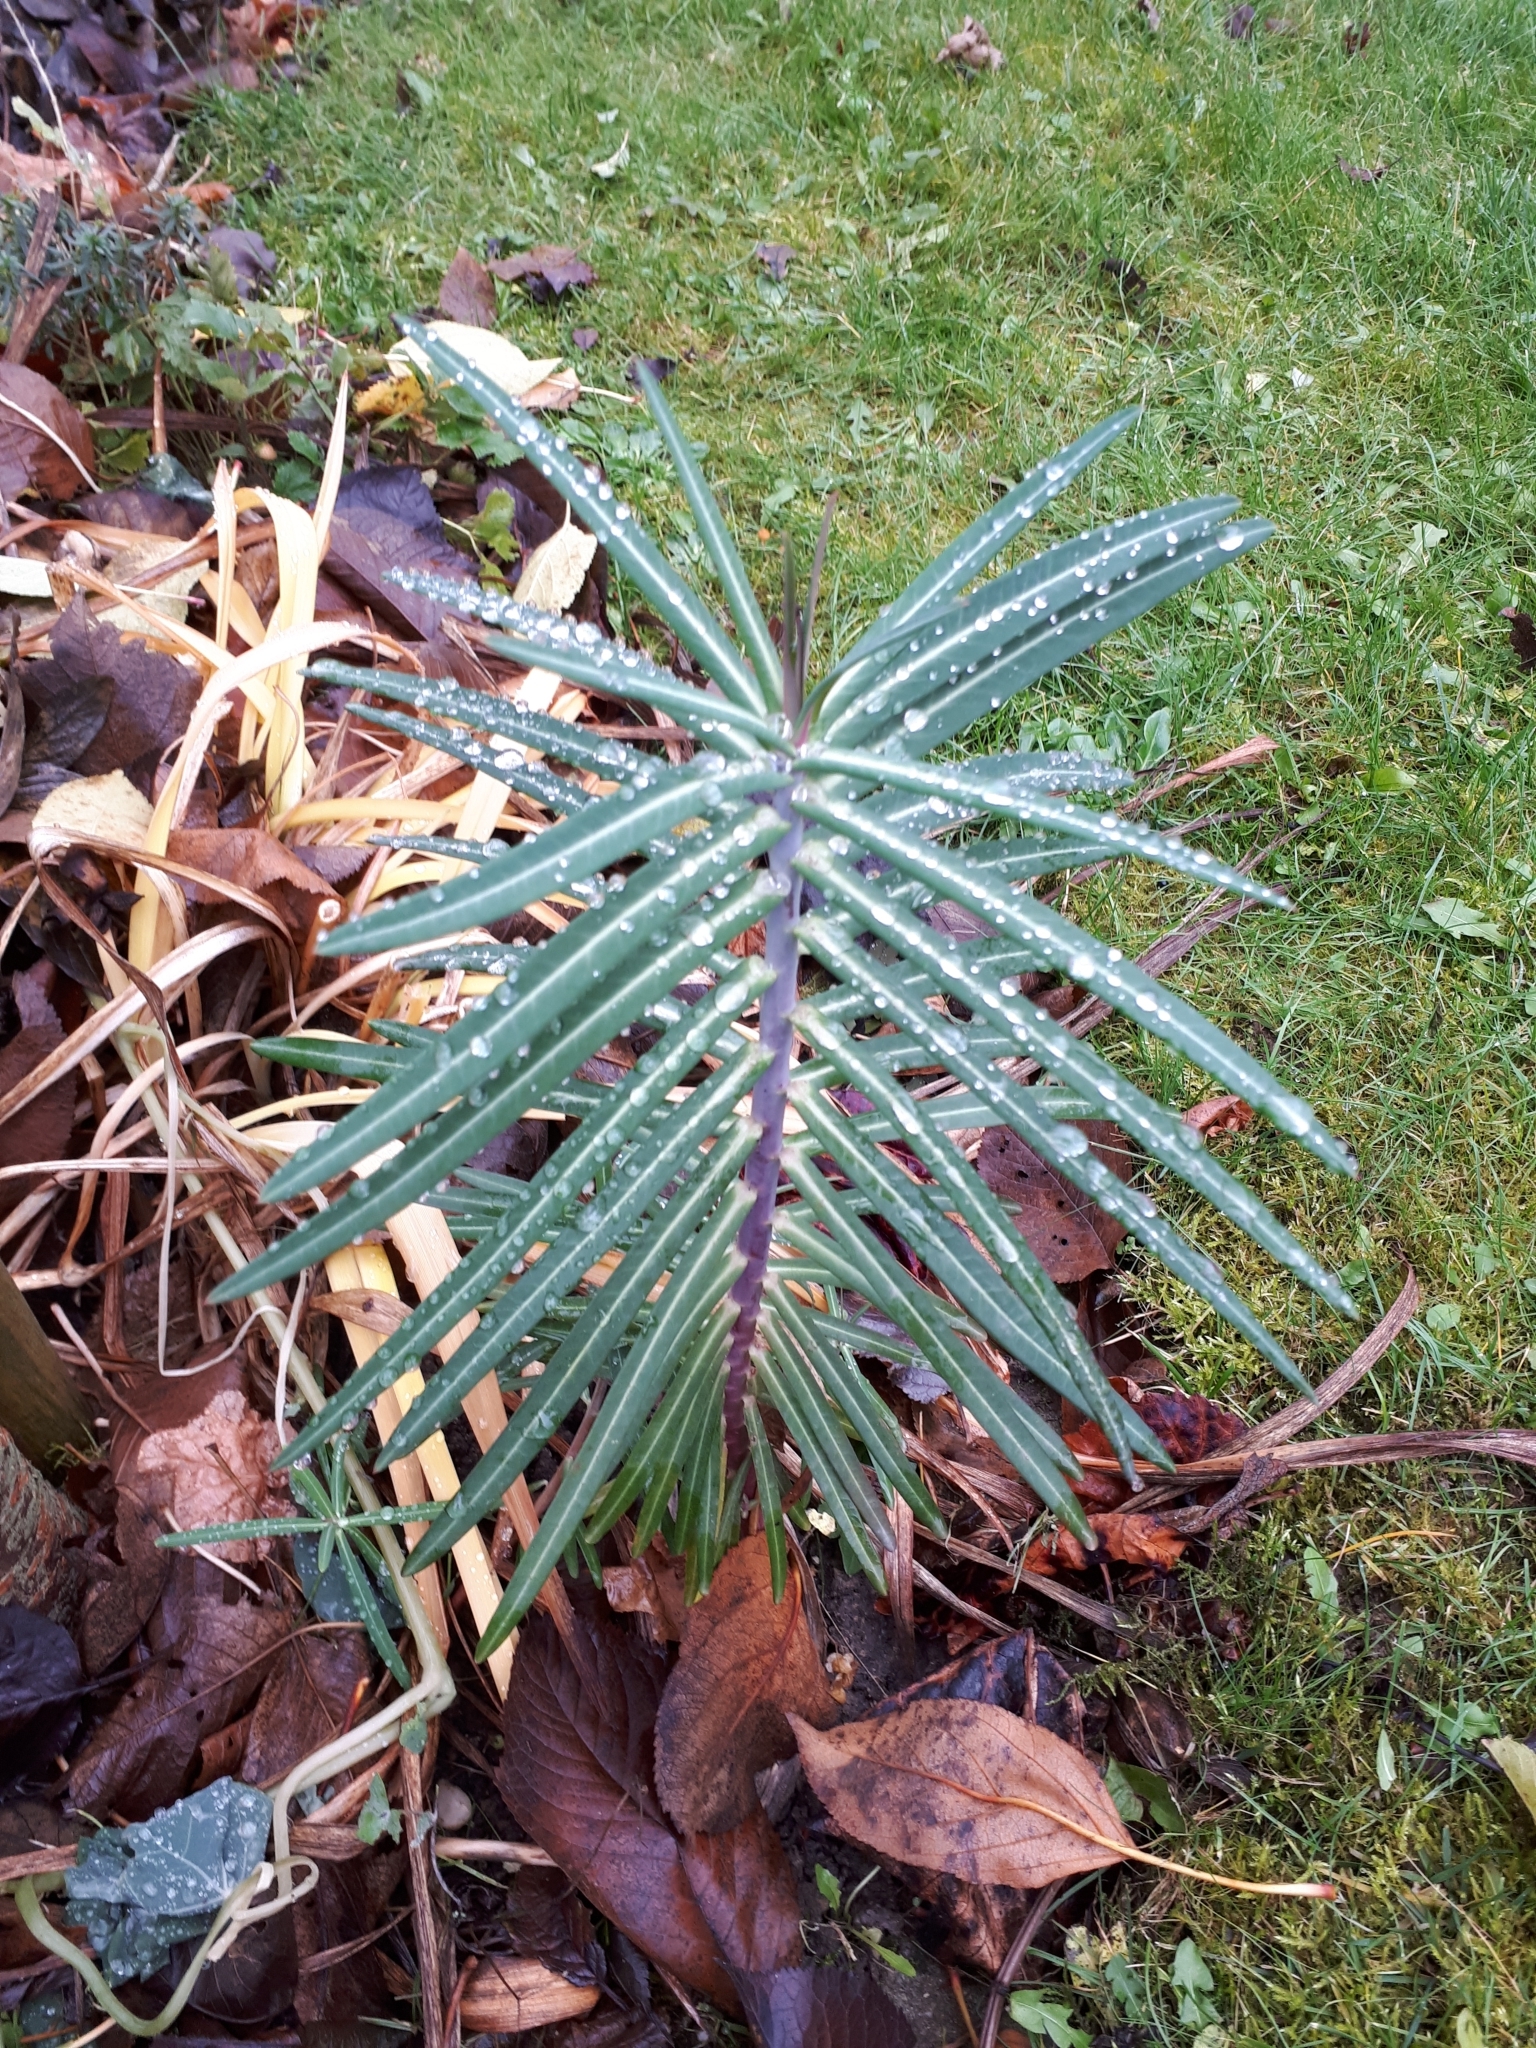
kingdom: Plantae
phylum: Tracheophyta
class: Magnoliopsida
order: Malpighiales
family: Euphorbiaceae
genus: Euphorbia
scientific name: Euphorbia lathyris
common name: Caper spurge
